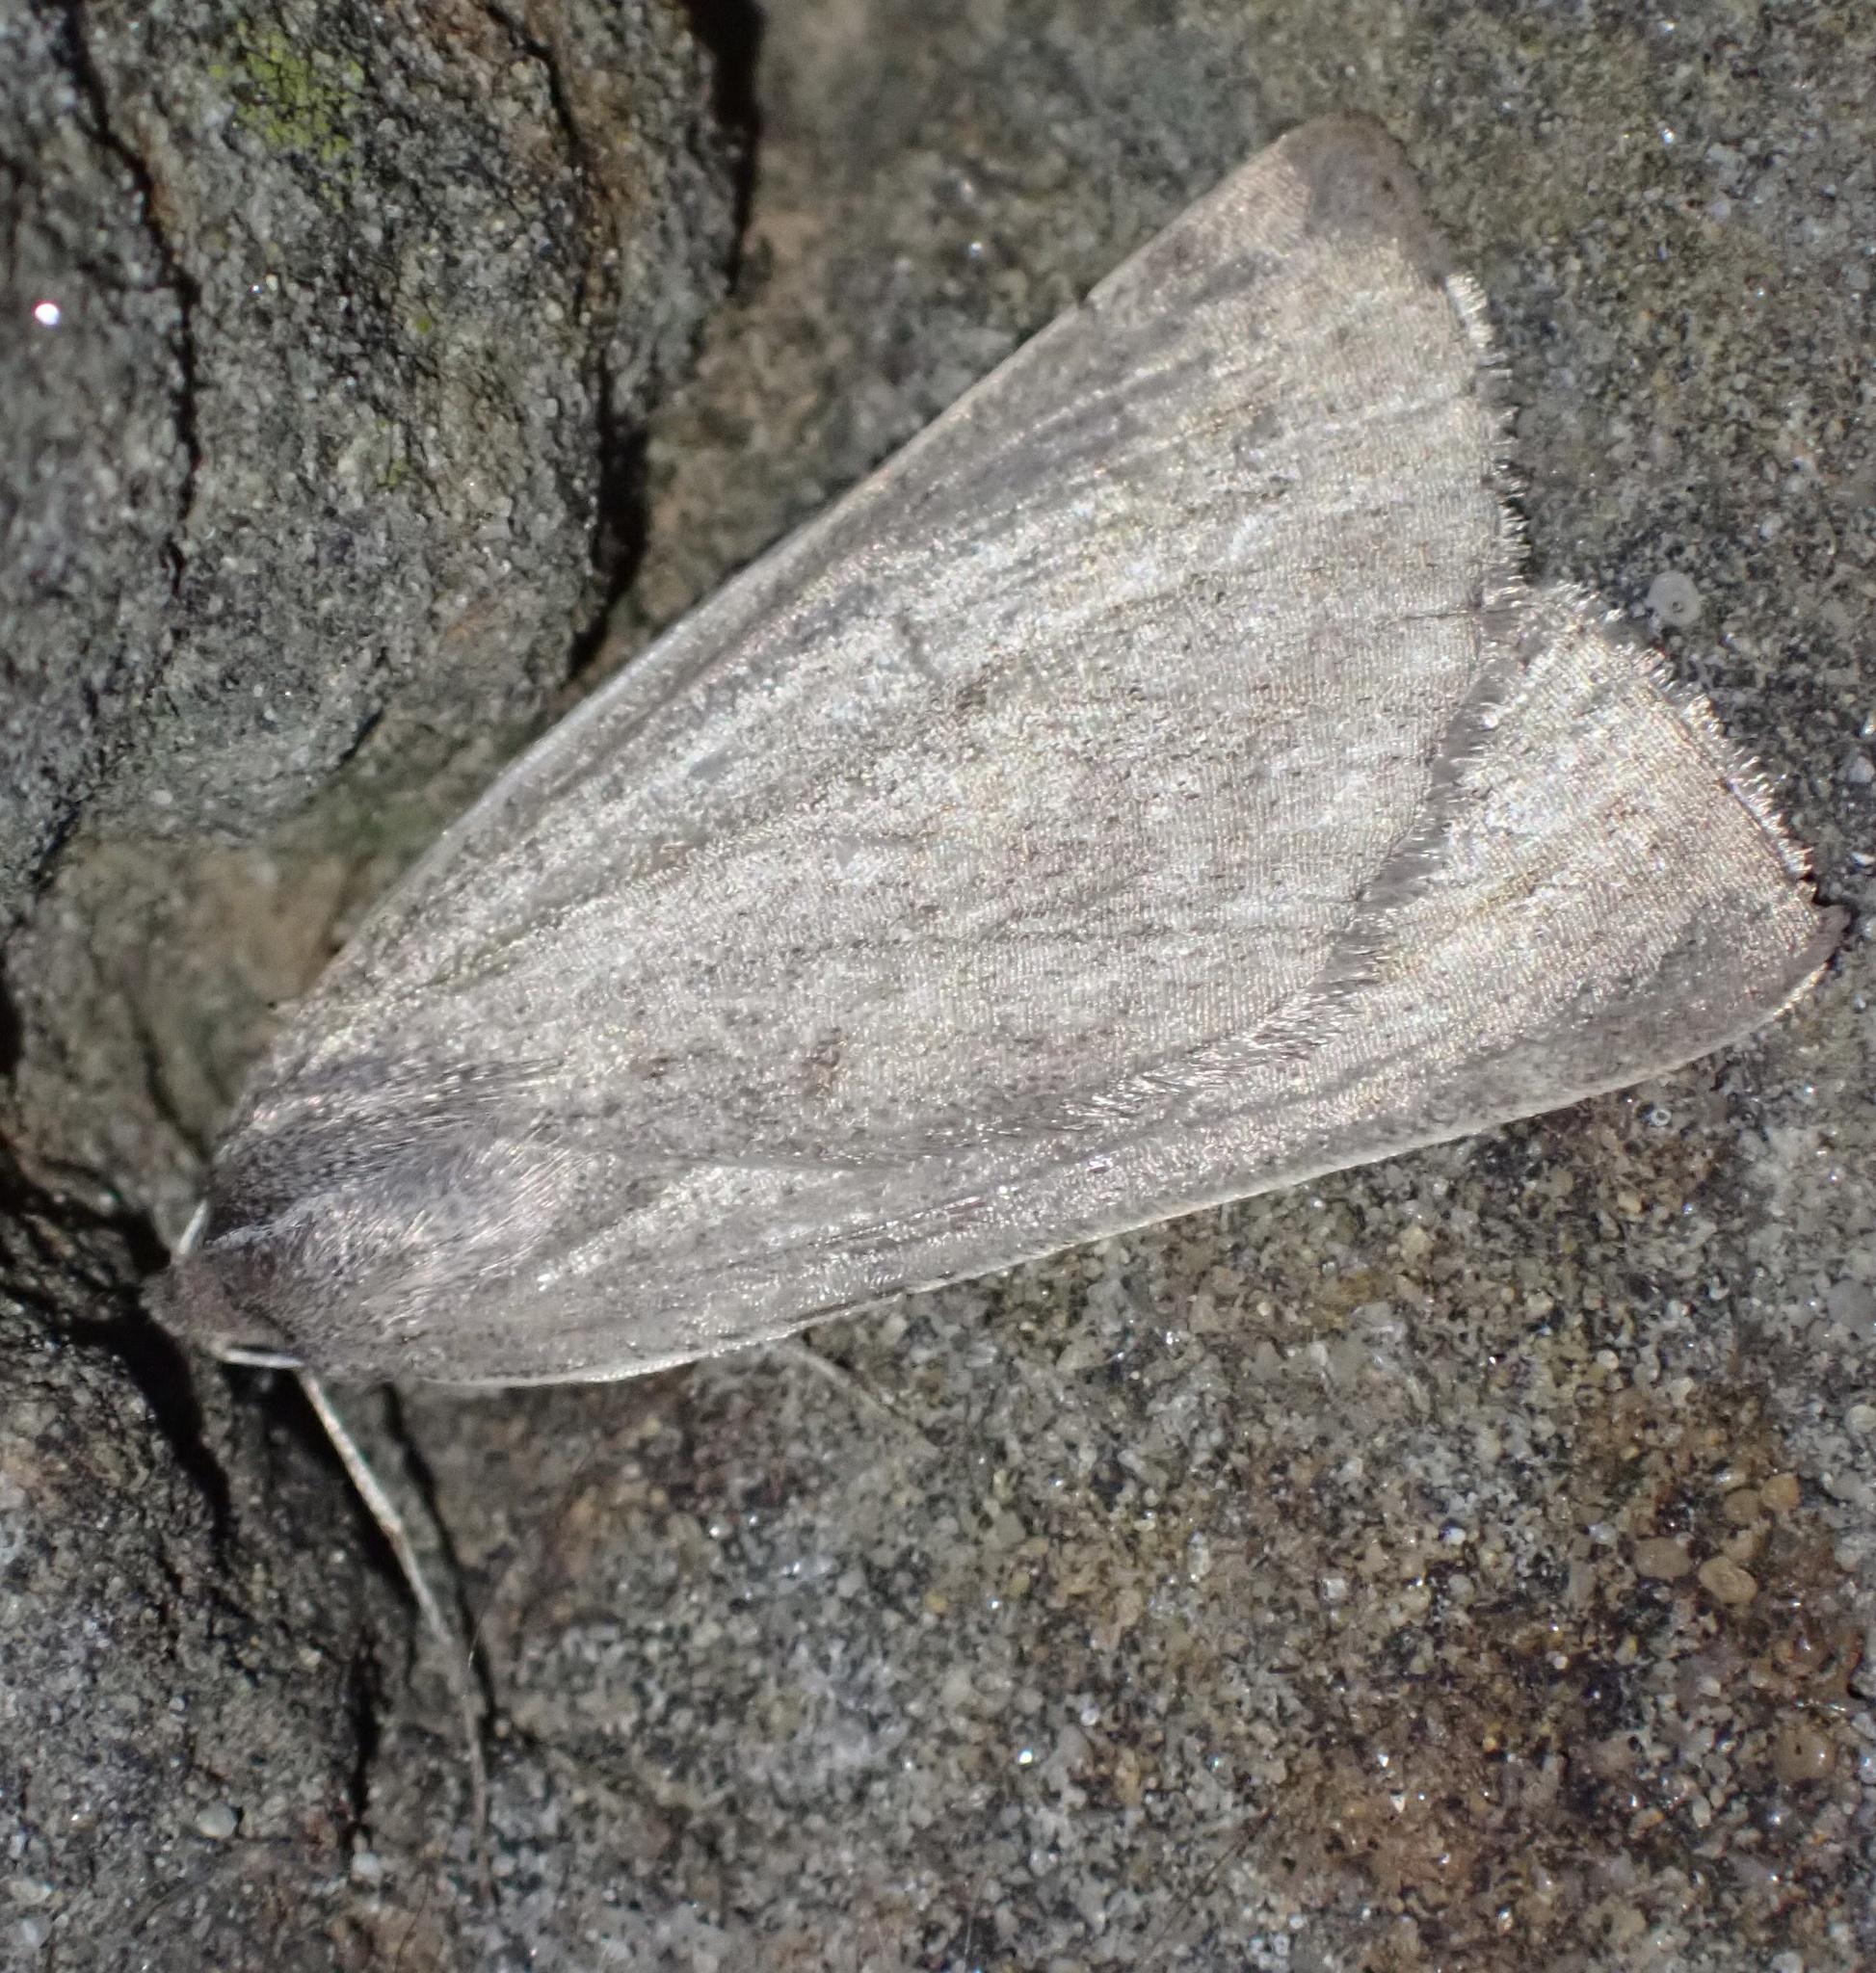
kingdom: Animalia
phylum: Arthropoda
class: Insecta
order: Lepidoptera
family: Geometridae
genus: Chemerina
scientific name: Chemerina caliginearia
